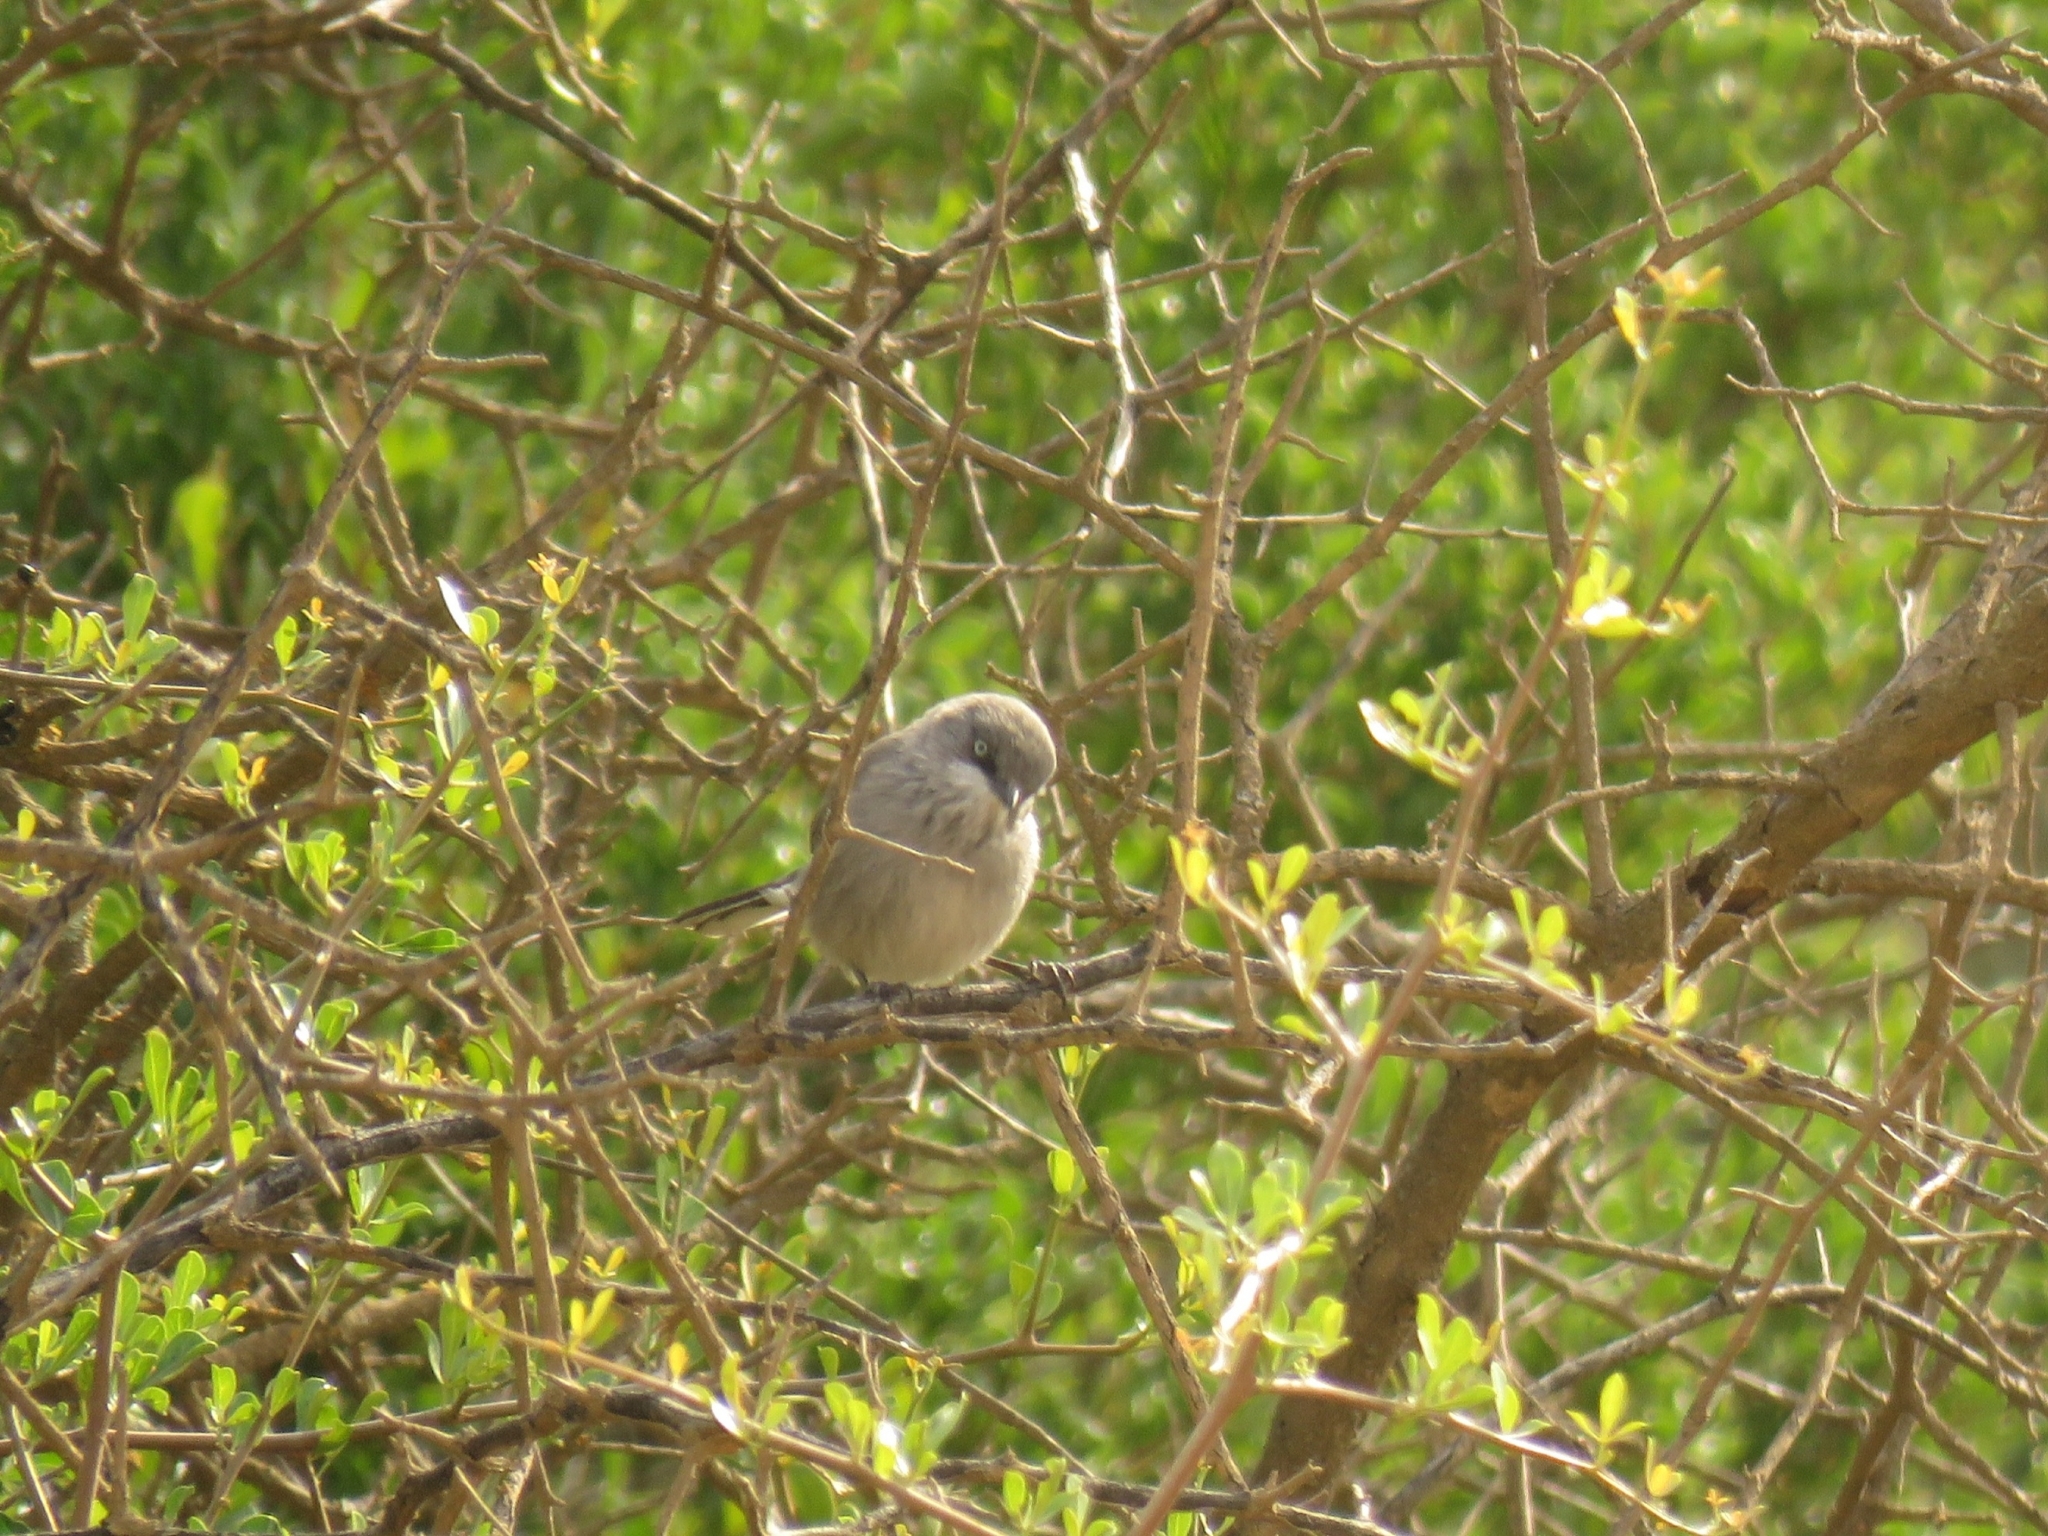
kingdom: Animalia
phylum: Chordata
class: Aves
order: Passeriformes
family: Sylviidae
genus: Sylvia
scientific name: Sylvia layardi
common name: Layard's warbler
